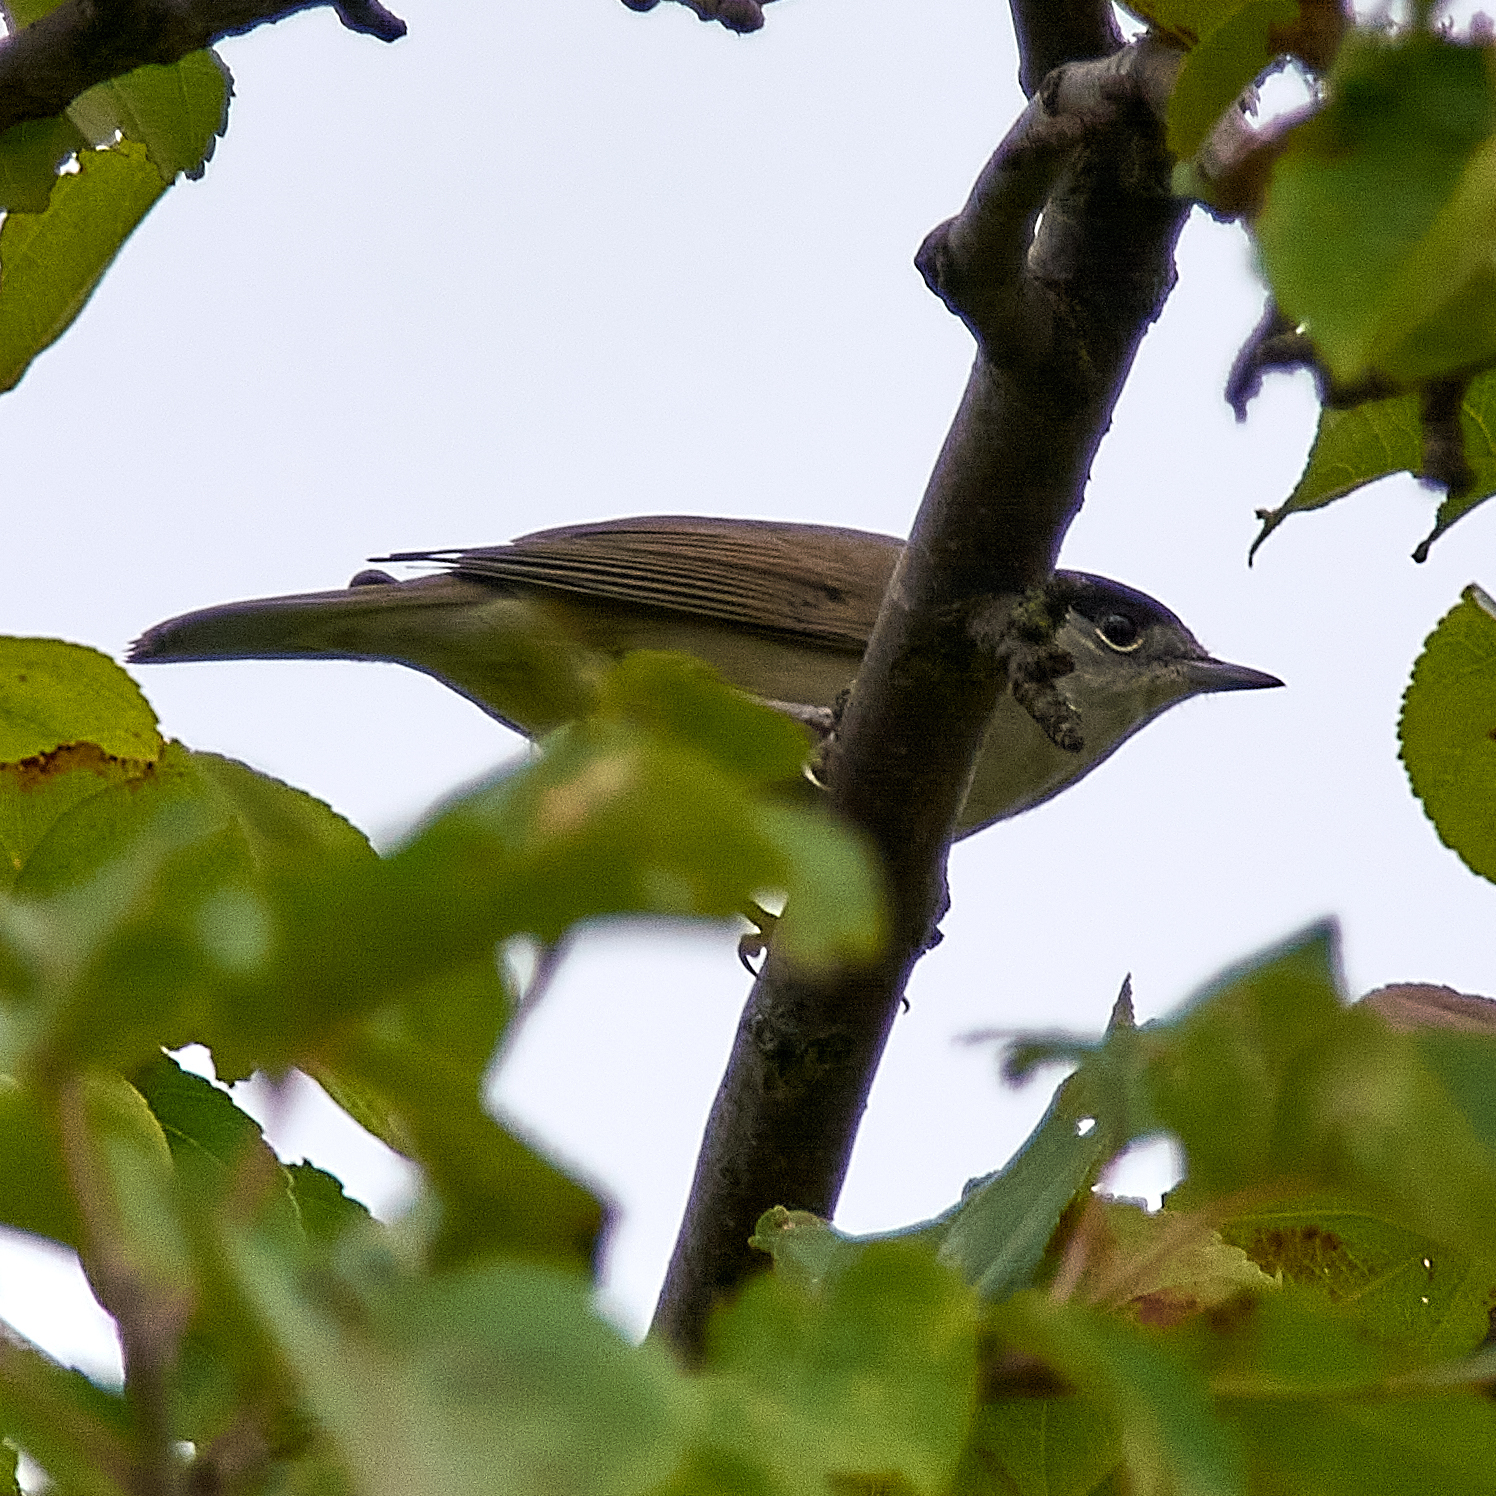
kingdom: Animalia
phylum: Chordata
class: Aves
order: Passeriformes
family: Sylviidae
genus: Sylvia
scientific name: Sylvia atricapilla
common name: Eurasian blackcap
